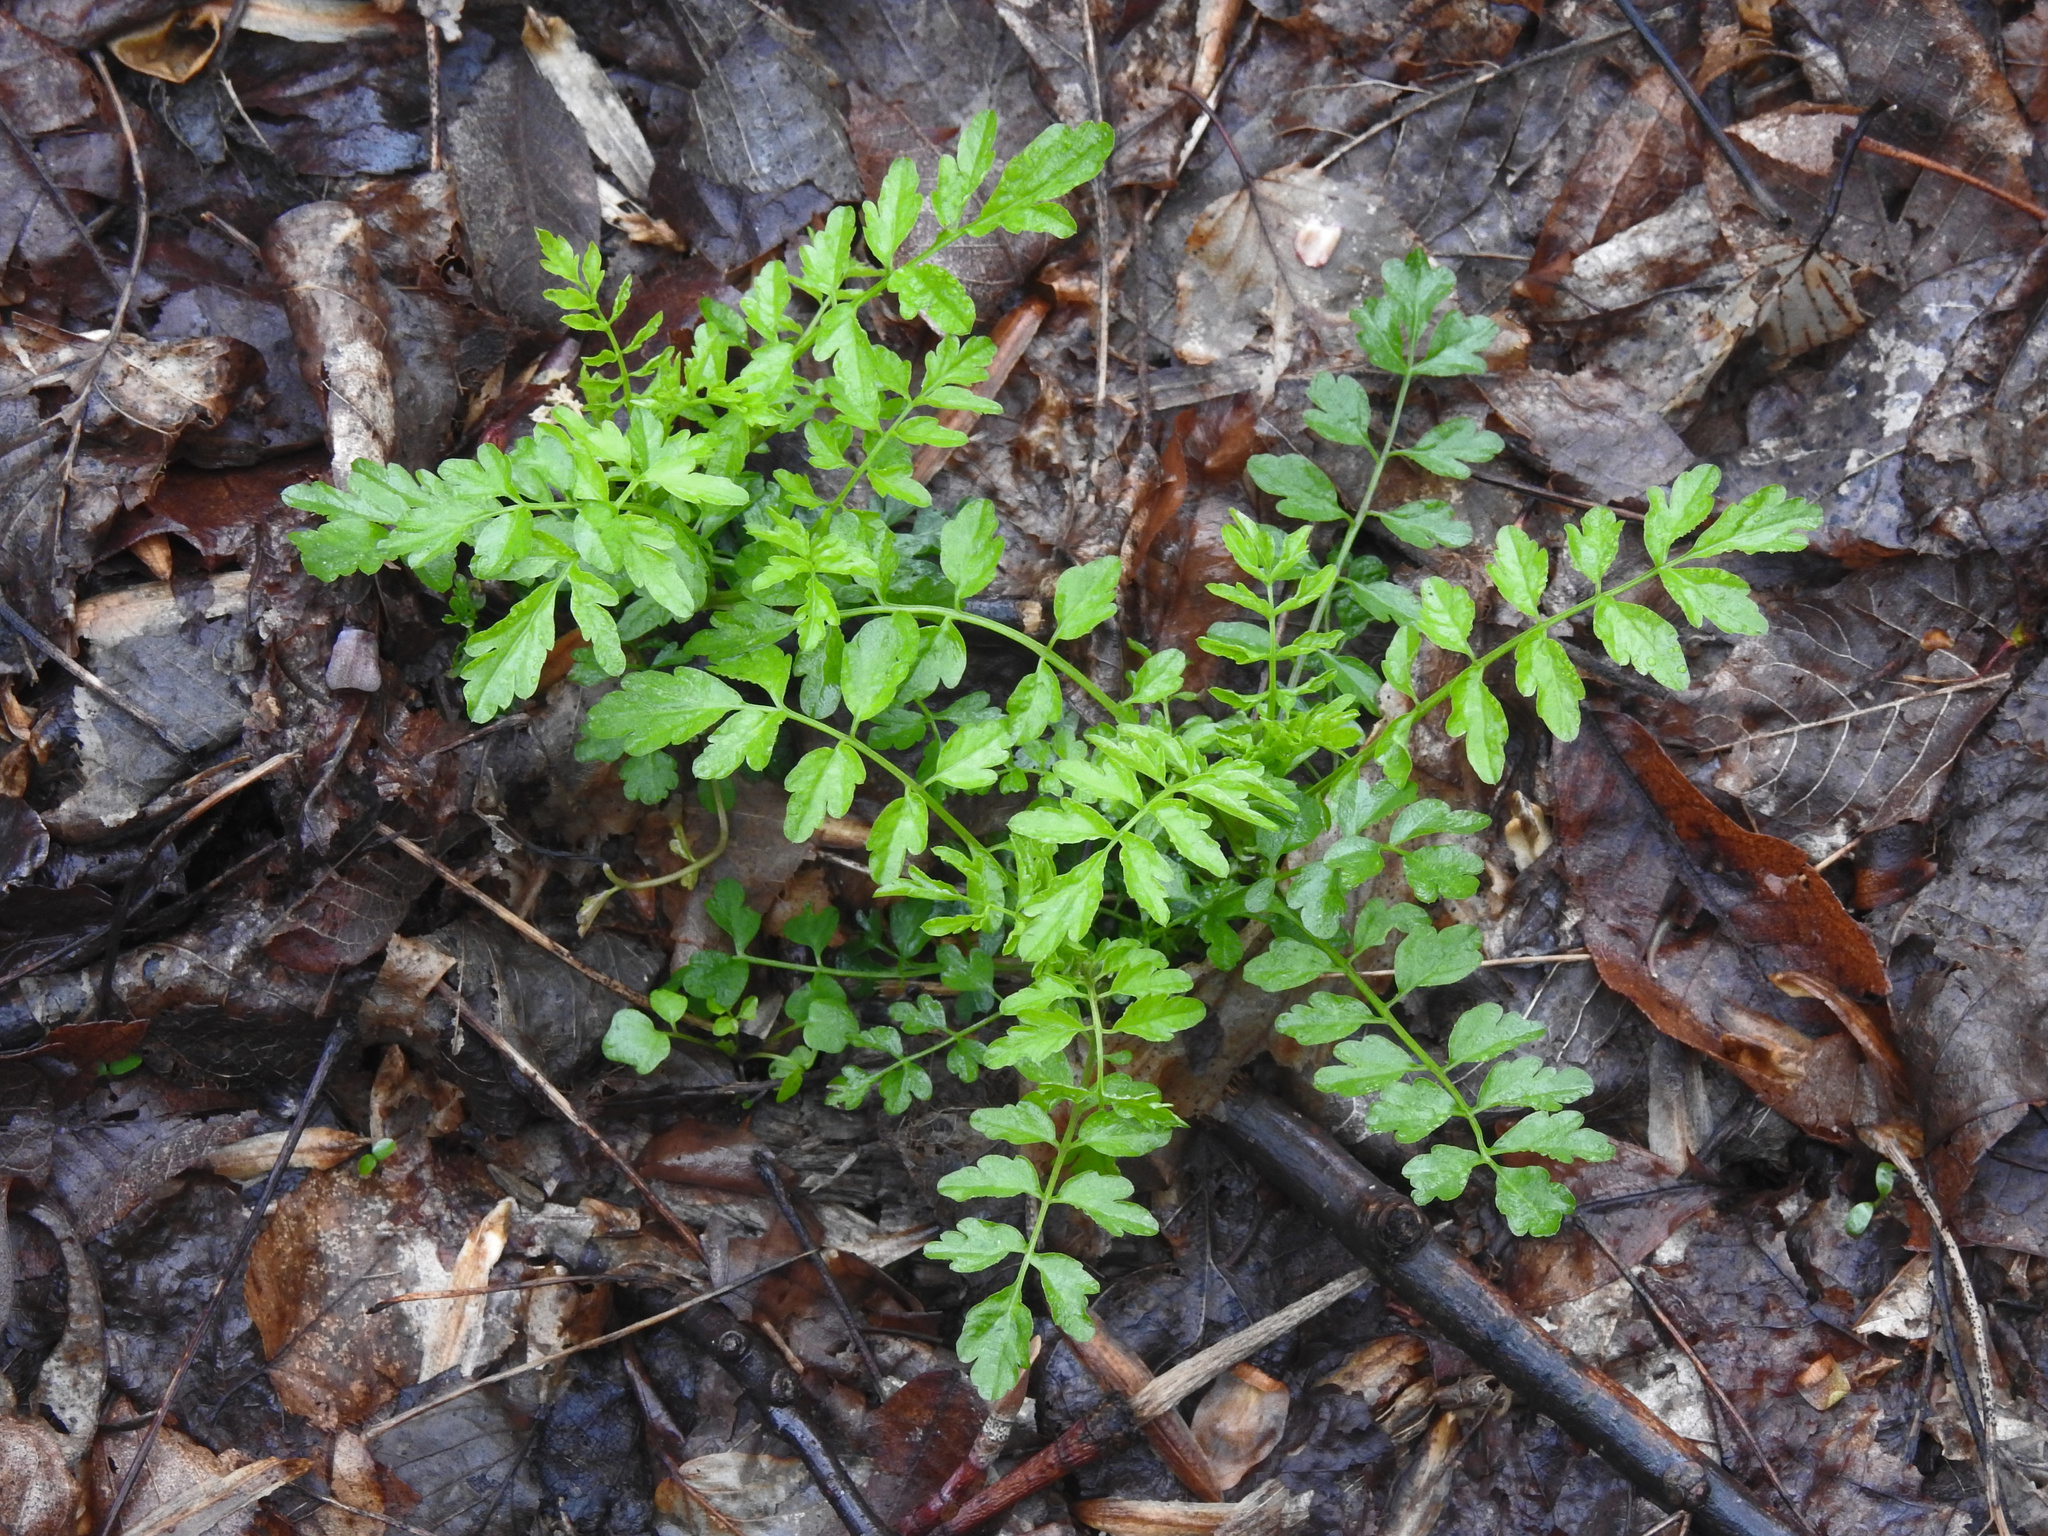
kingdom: Plantae
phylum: Tracheophyta
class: Magnoliopsida
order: Brassicales
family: Brassicaceae
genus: Cardamine
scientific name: Cardamine impatiens
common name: Narrow-leaved bitter-cress
